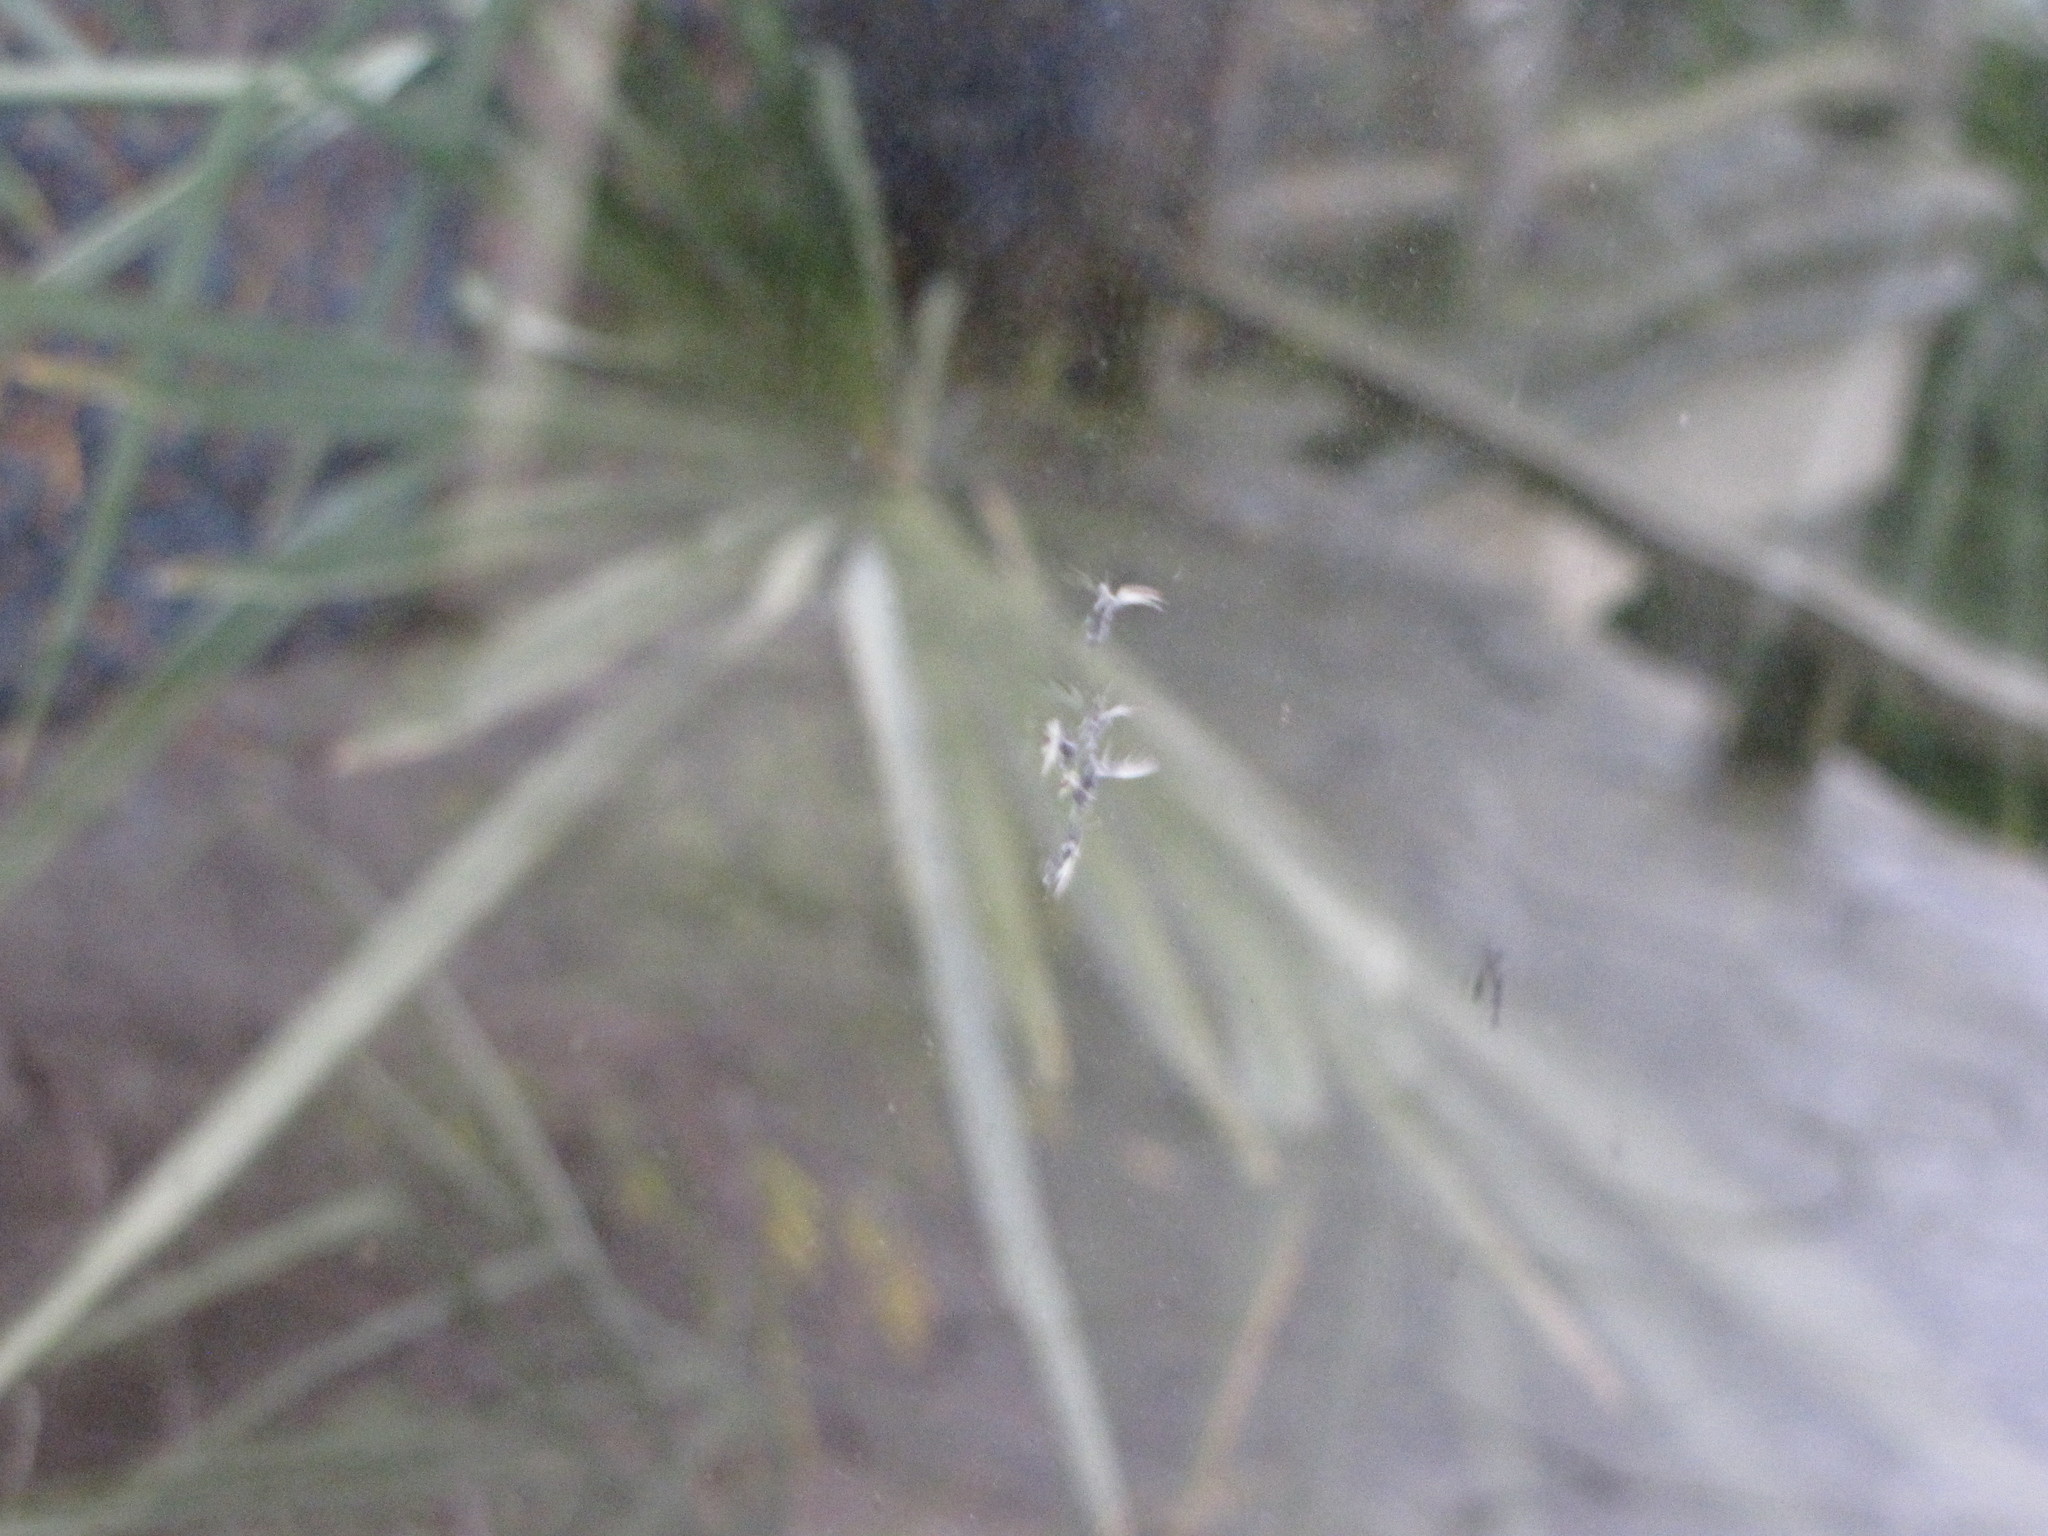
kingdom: Animalia
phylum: Chordata
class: Aves
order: Passeriformes
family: Turdidae
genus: Turdus
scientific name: Turdus migratorius
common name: American robin
